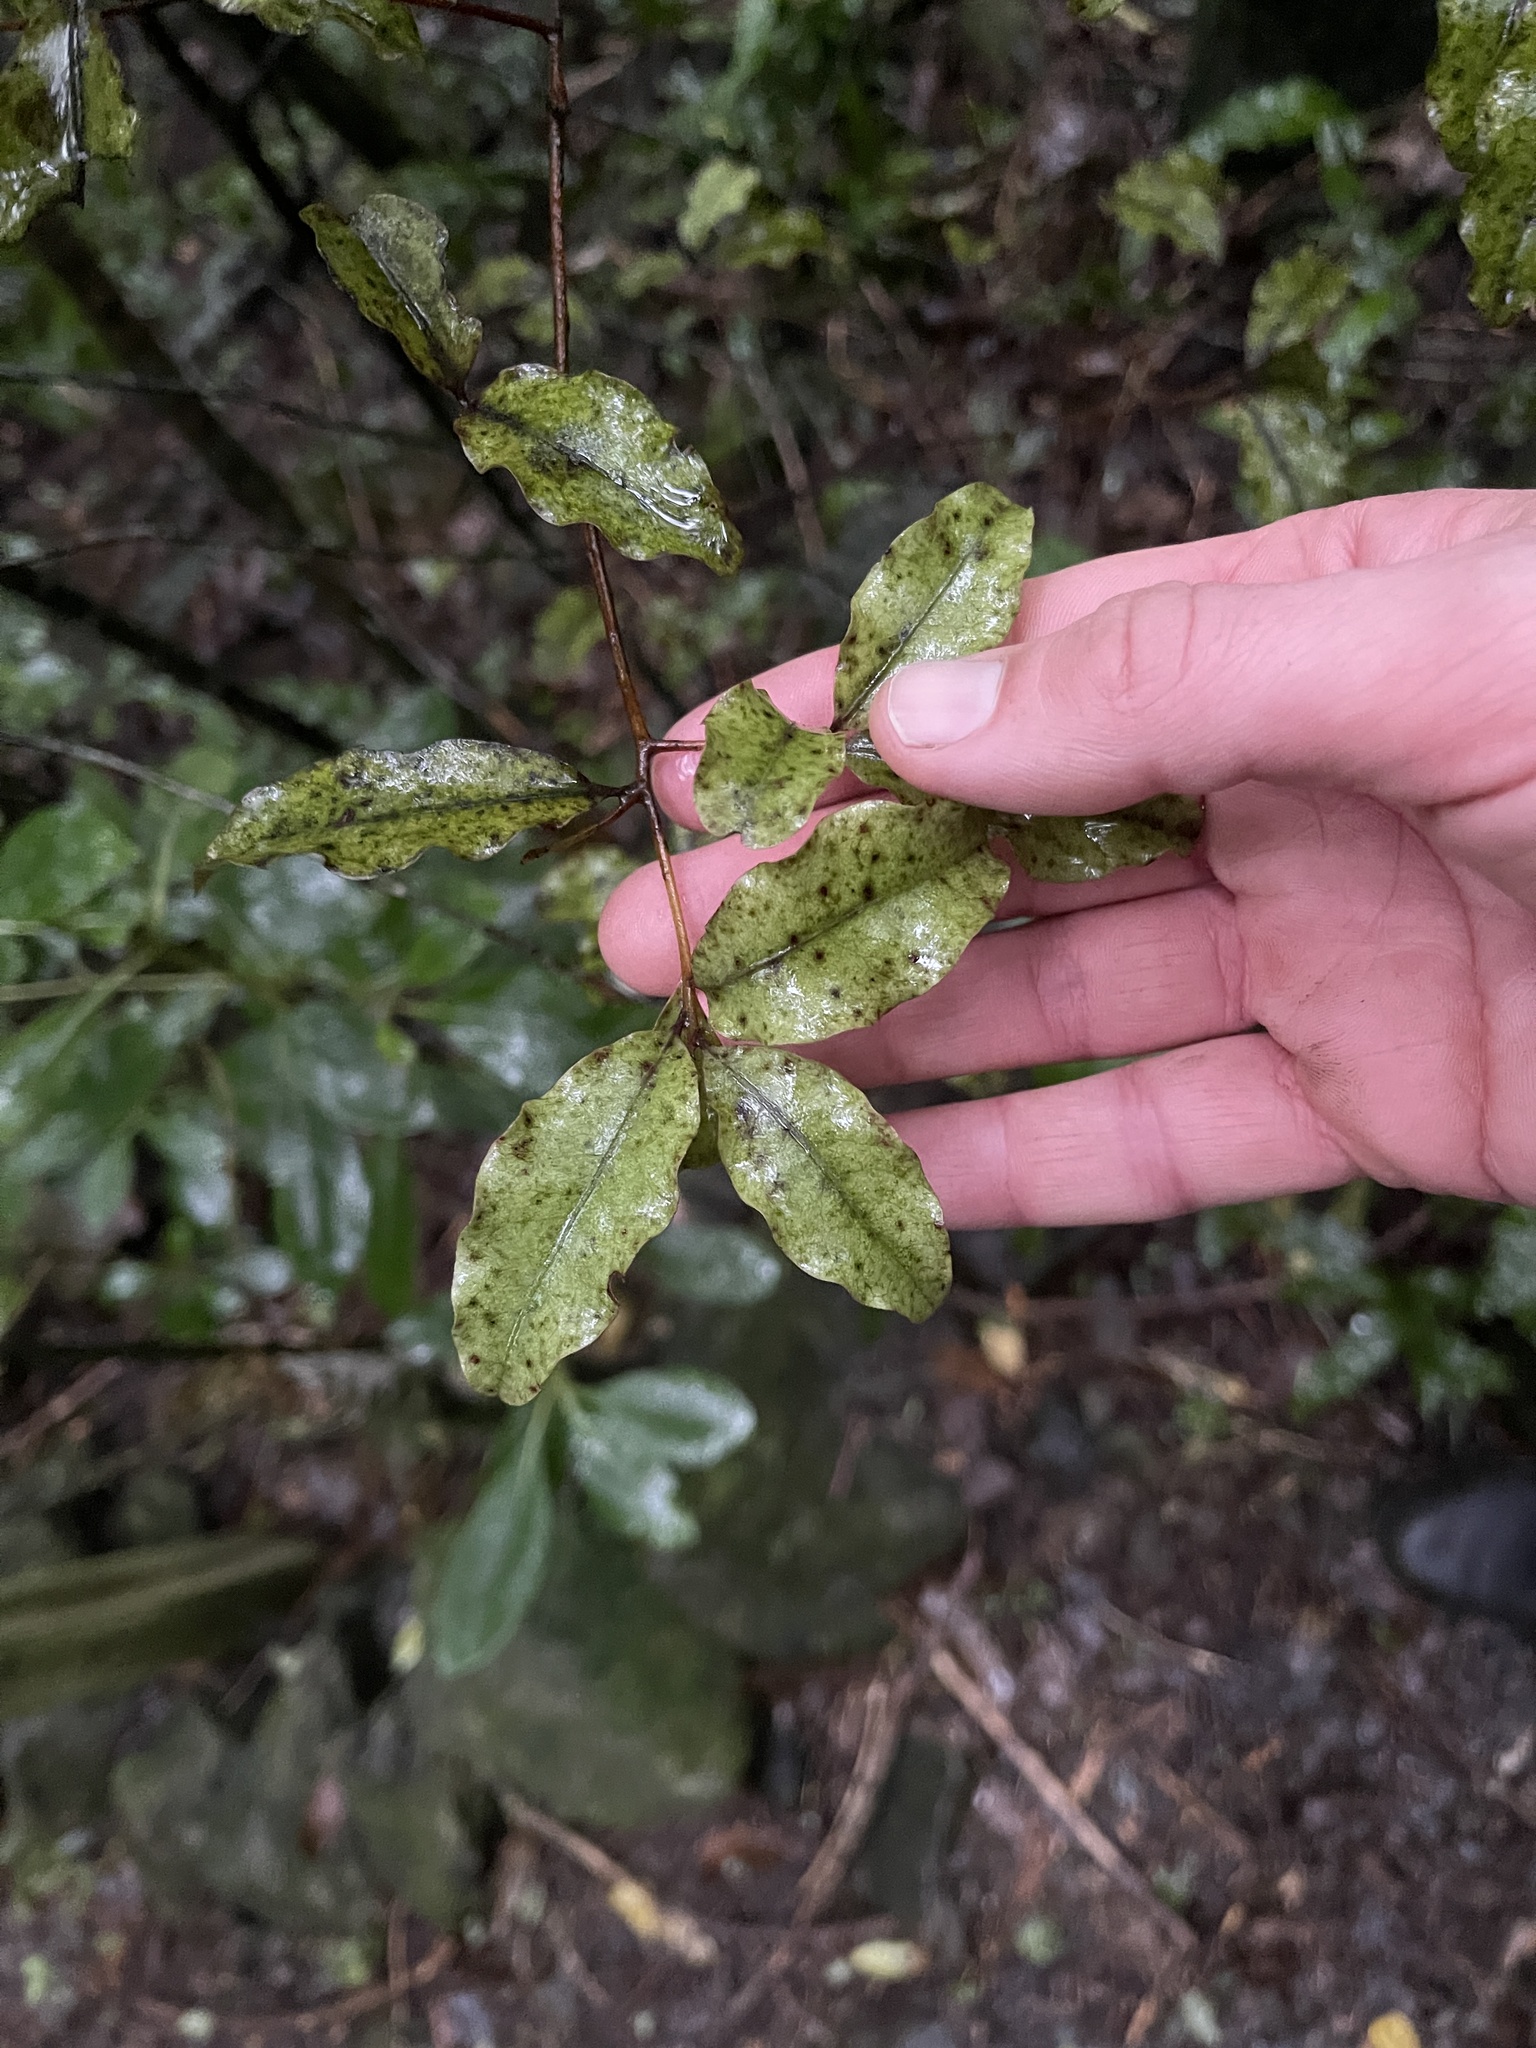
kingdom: Plantae
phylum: Tracheophyta
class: Magnoliopsida
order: Ericales
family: Primulaceae
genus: Myrsine
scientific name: Myrsine australis
